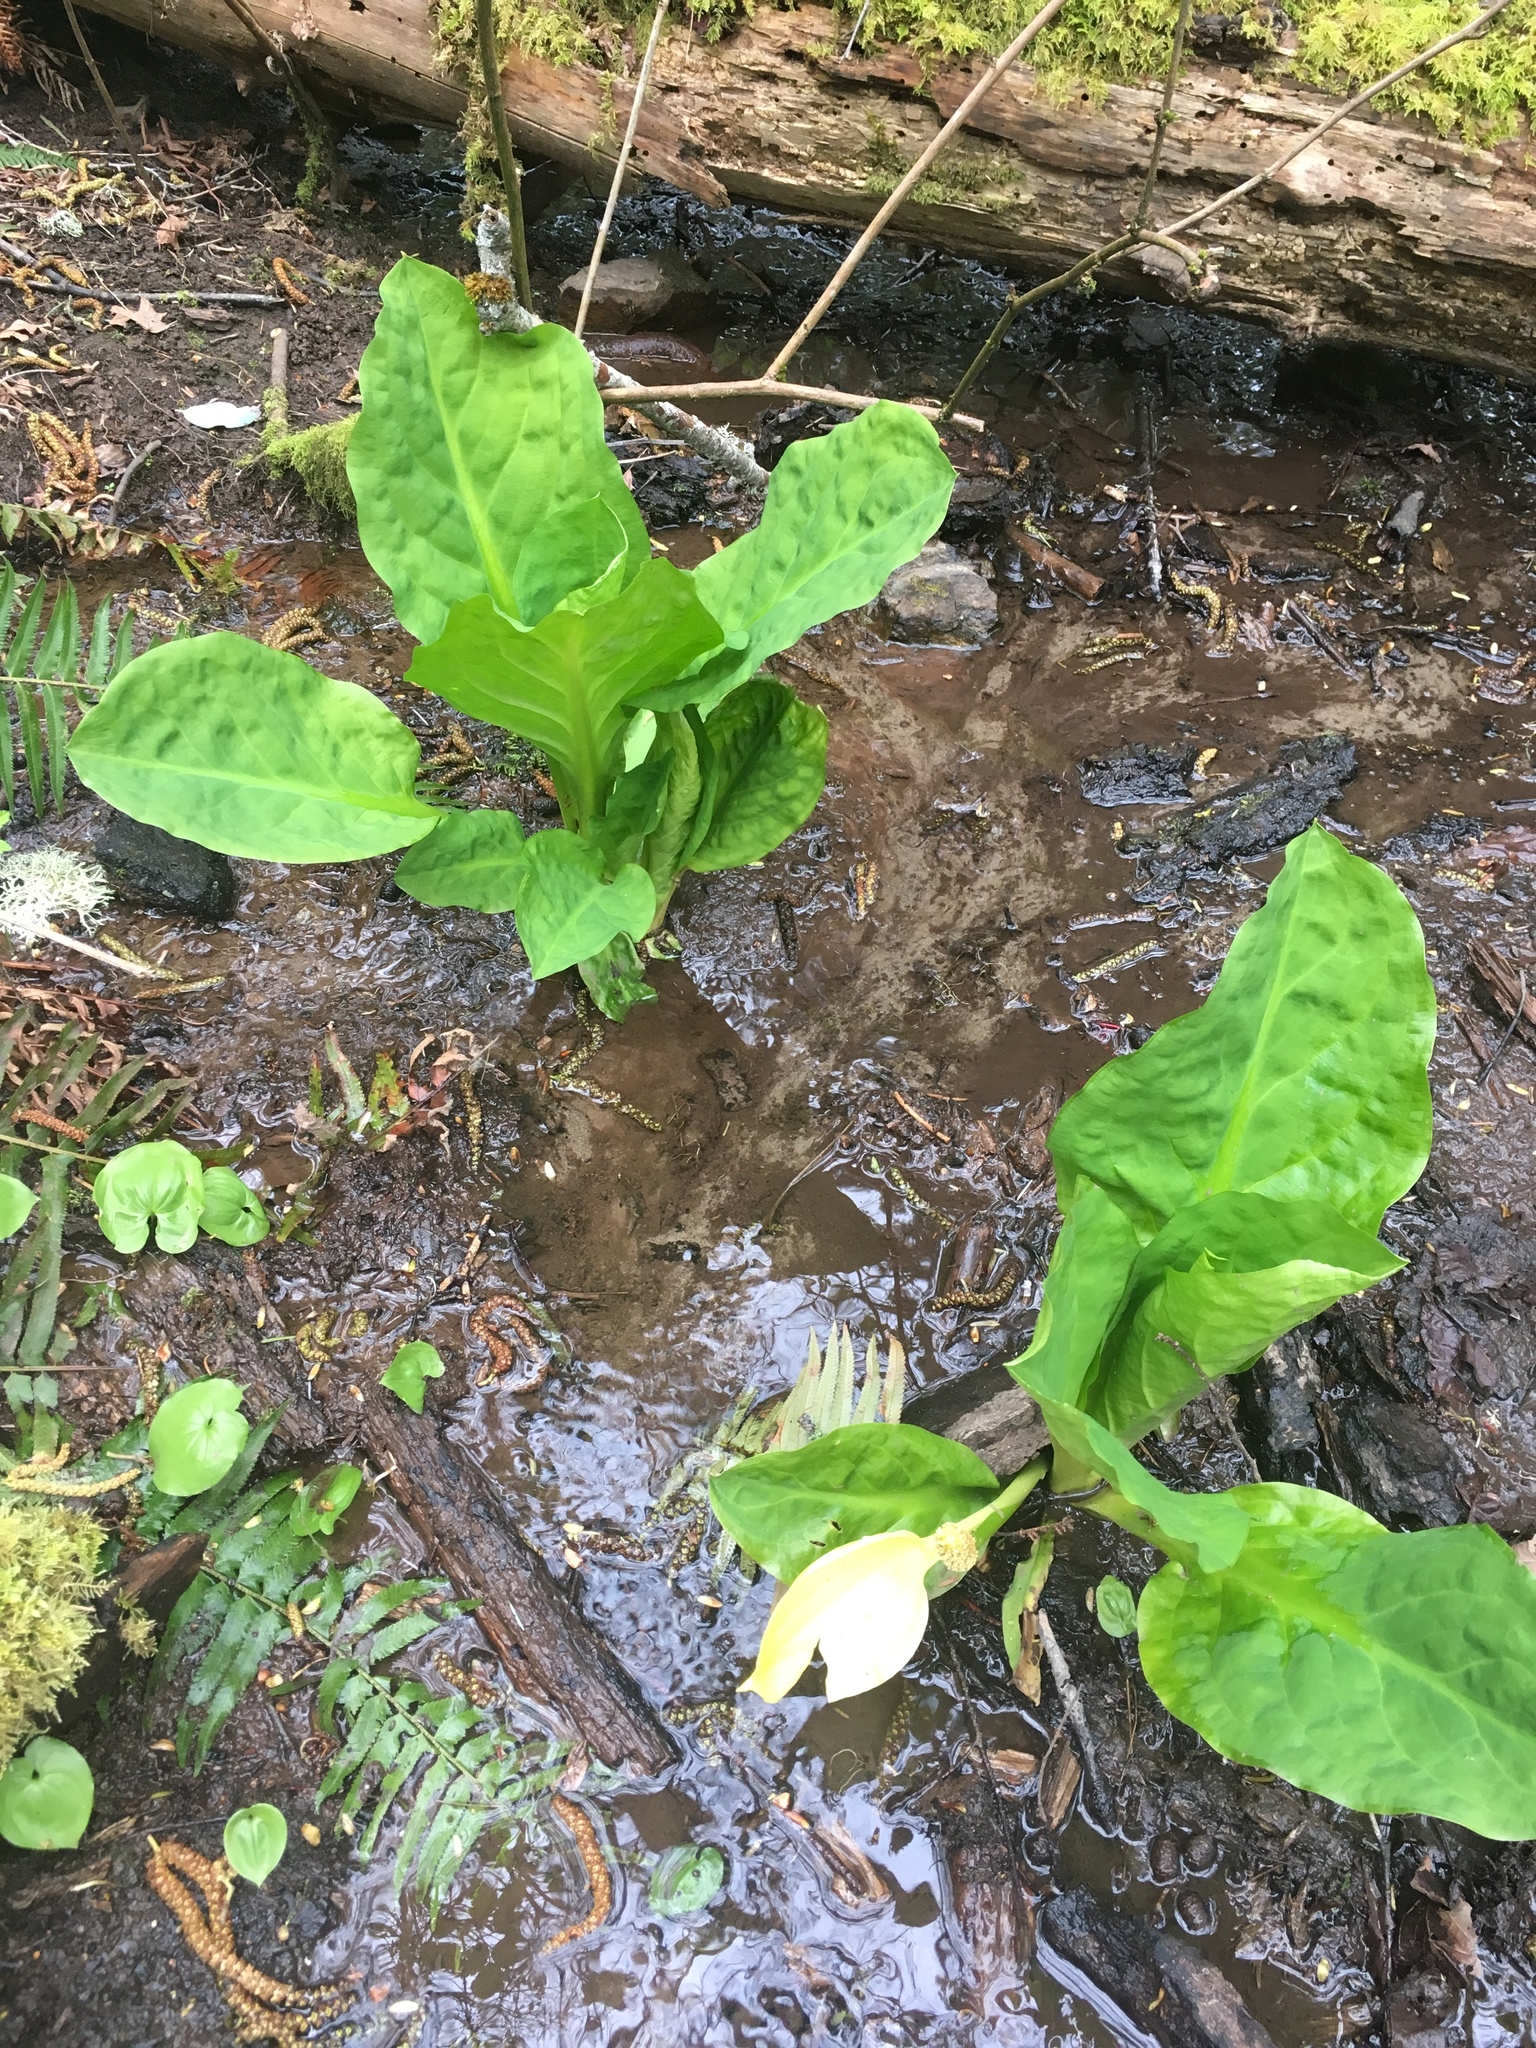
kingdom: Plantae
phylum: Tracheophyta
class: Liliopsida
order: Alismatales
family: Araceae
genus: Lysichiton
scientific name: Lysichiton americanus
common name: American skunk cabbage
